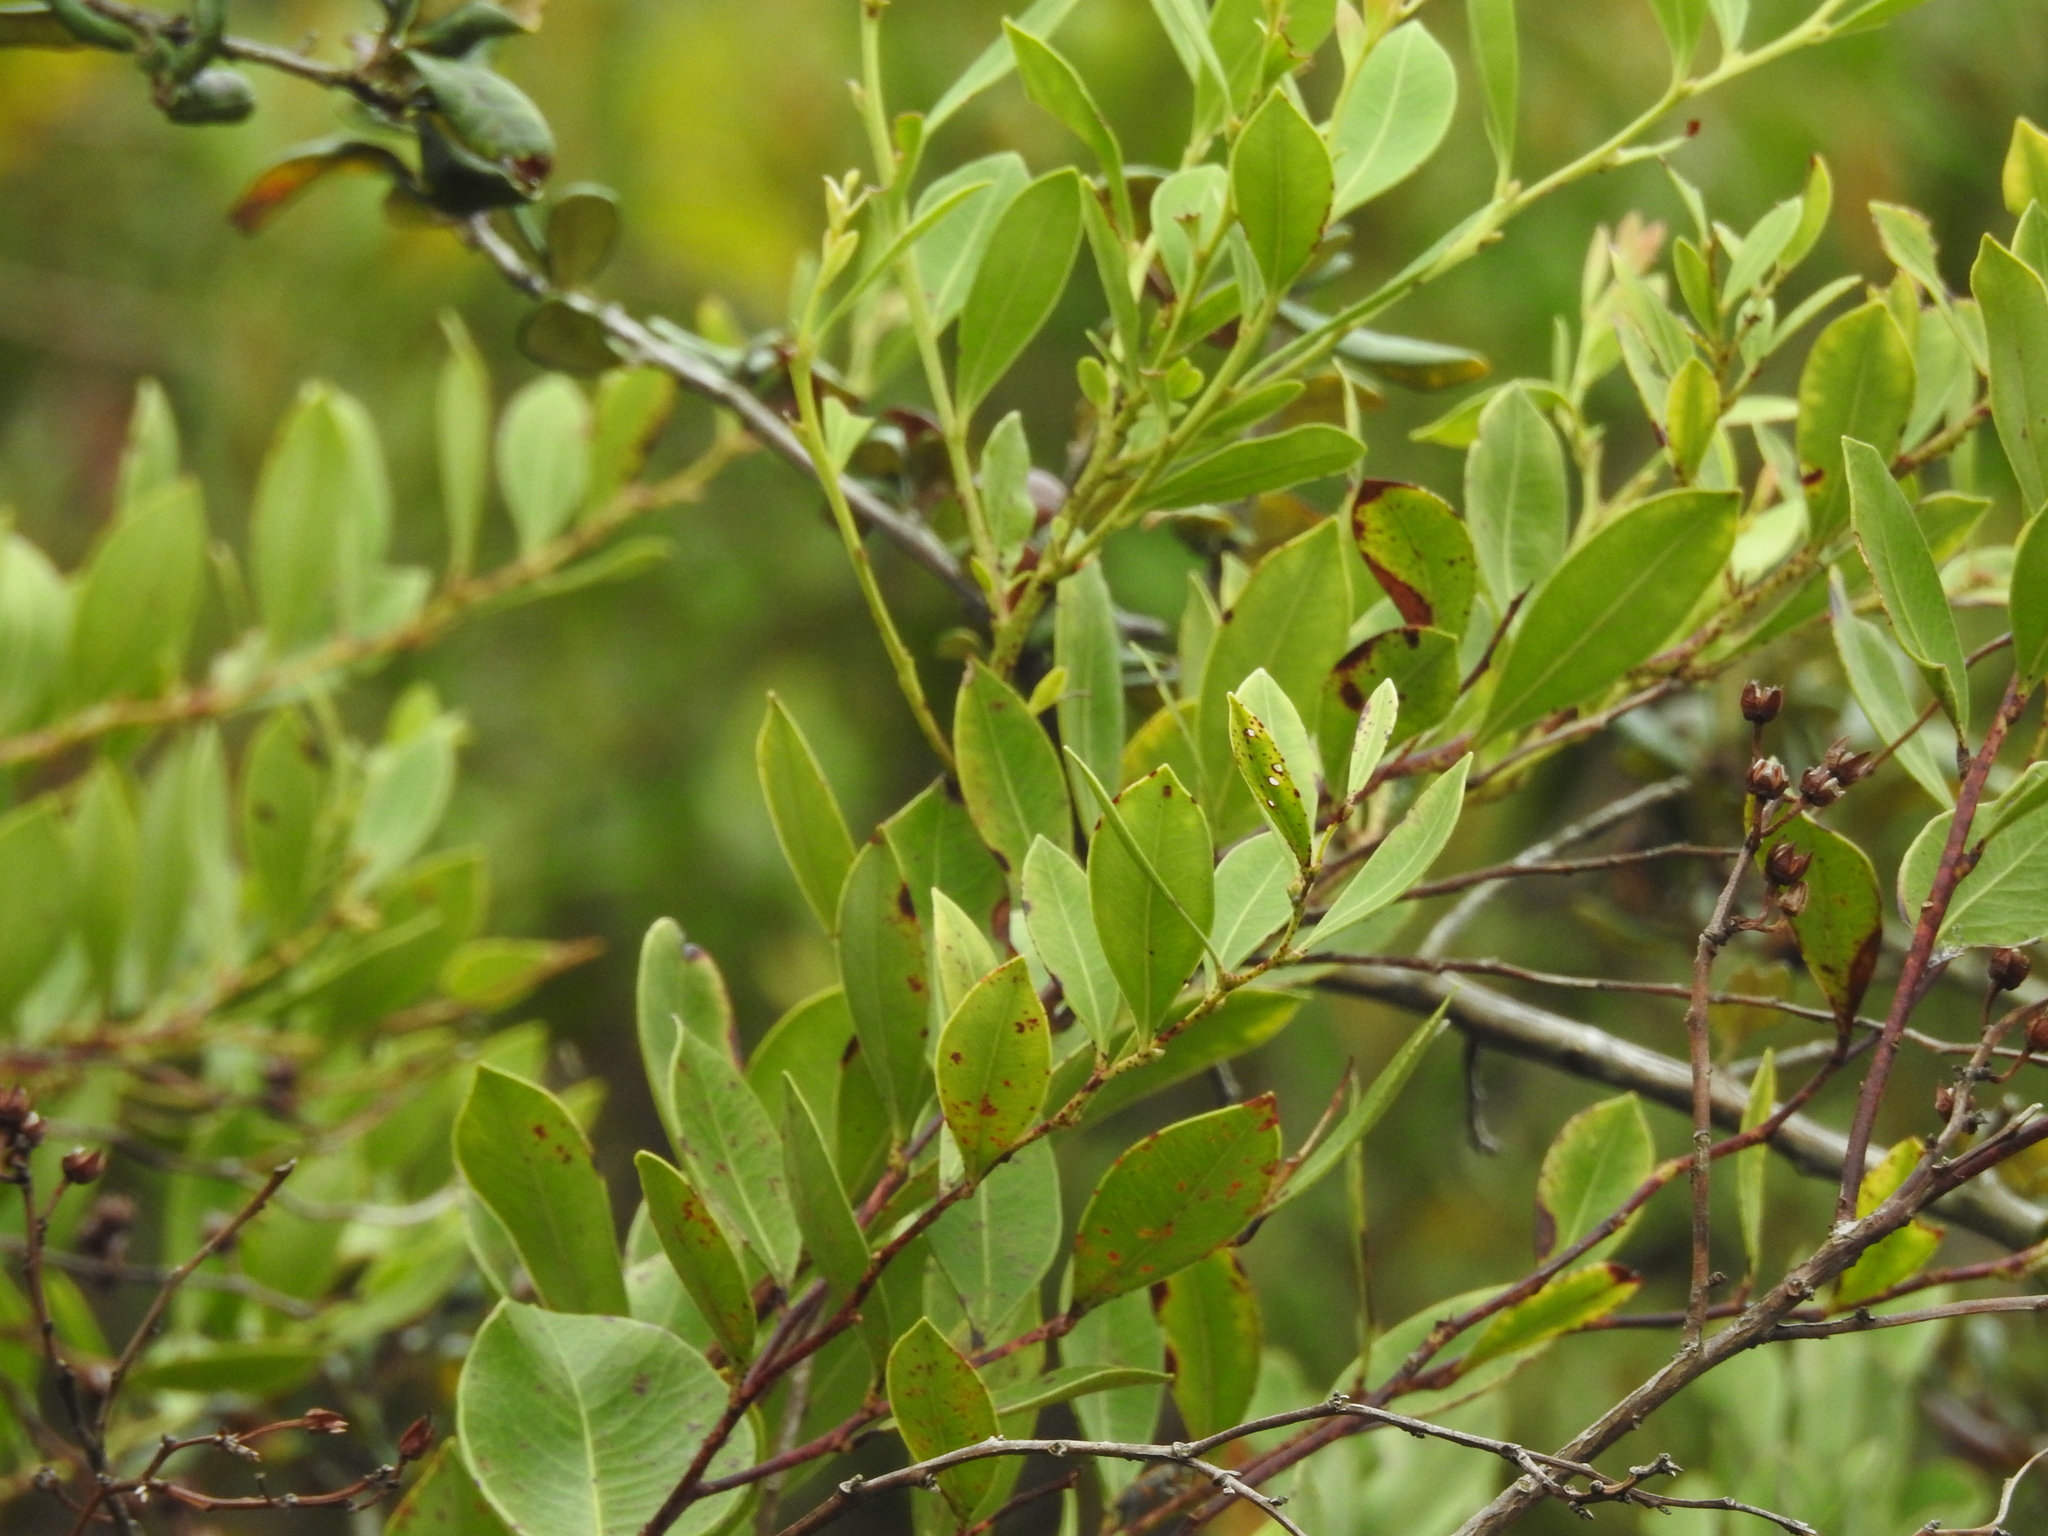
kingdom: Plantae
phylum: Tracheophyta
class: Magnoliopsida
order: Ericales
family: Ericaceae
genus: Lyonia
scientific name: Lyonia lucida
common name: Fetterbush
